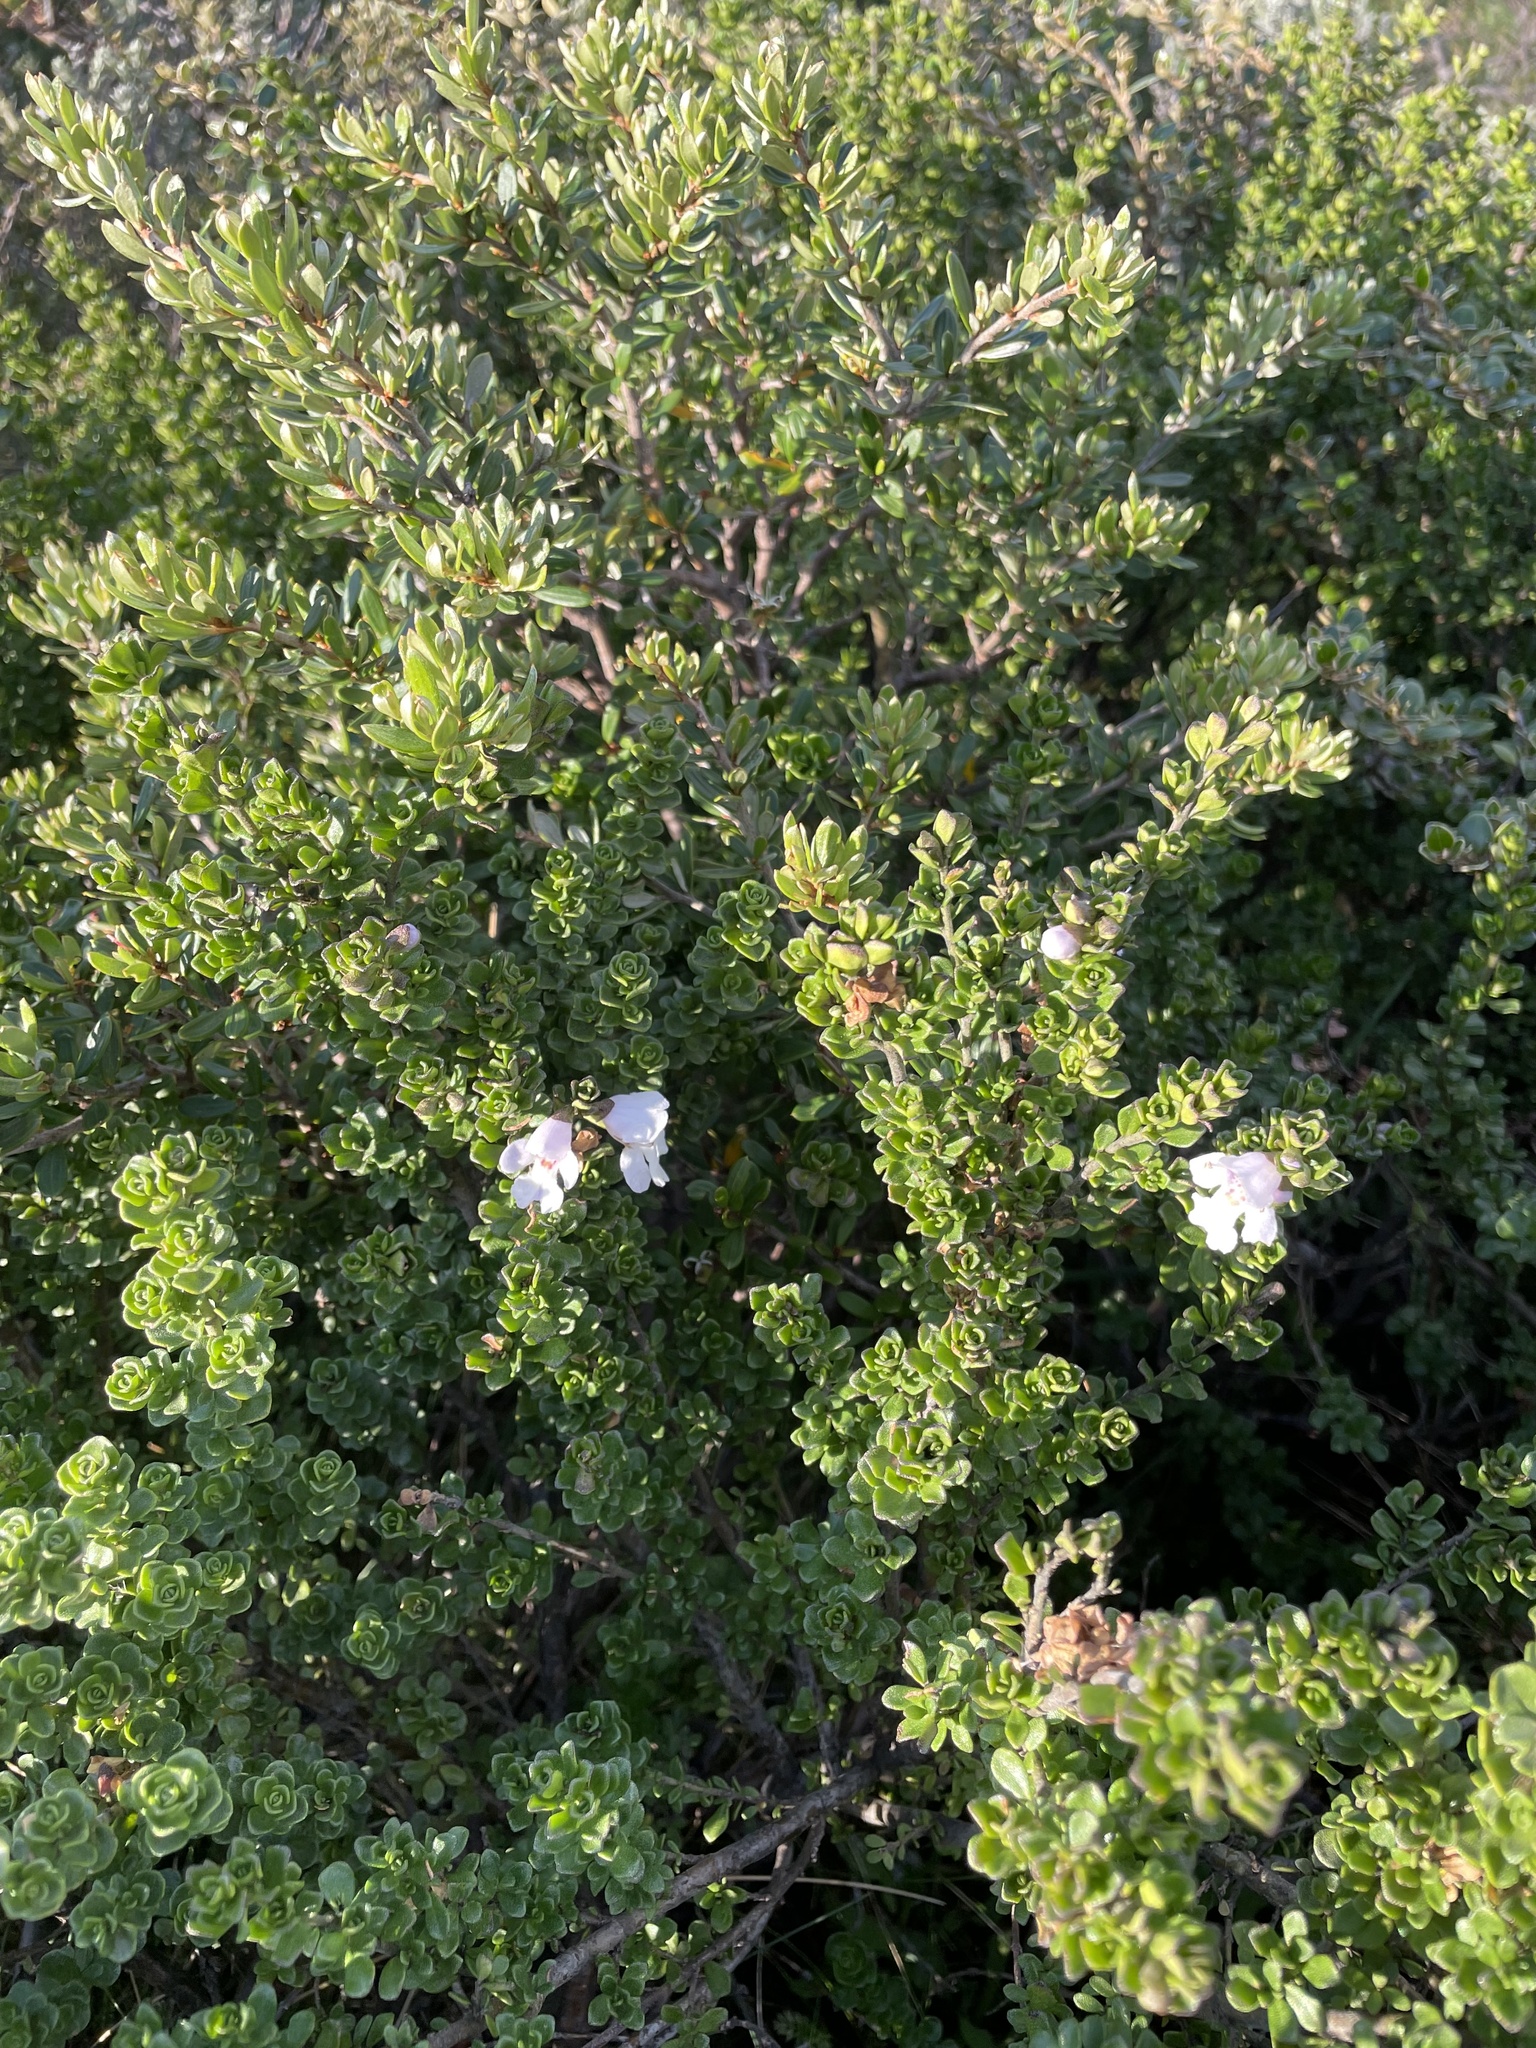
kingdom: Plantae
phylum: Tracheophyta
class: Magnoliopsida
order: Lamiales
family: Lamiaceae
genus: Prostanthera
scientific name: Prostanthera cuneata
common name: Alpine mintbush
